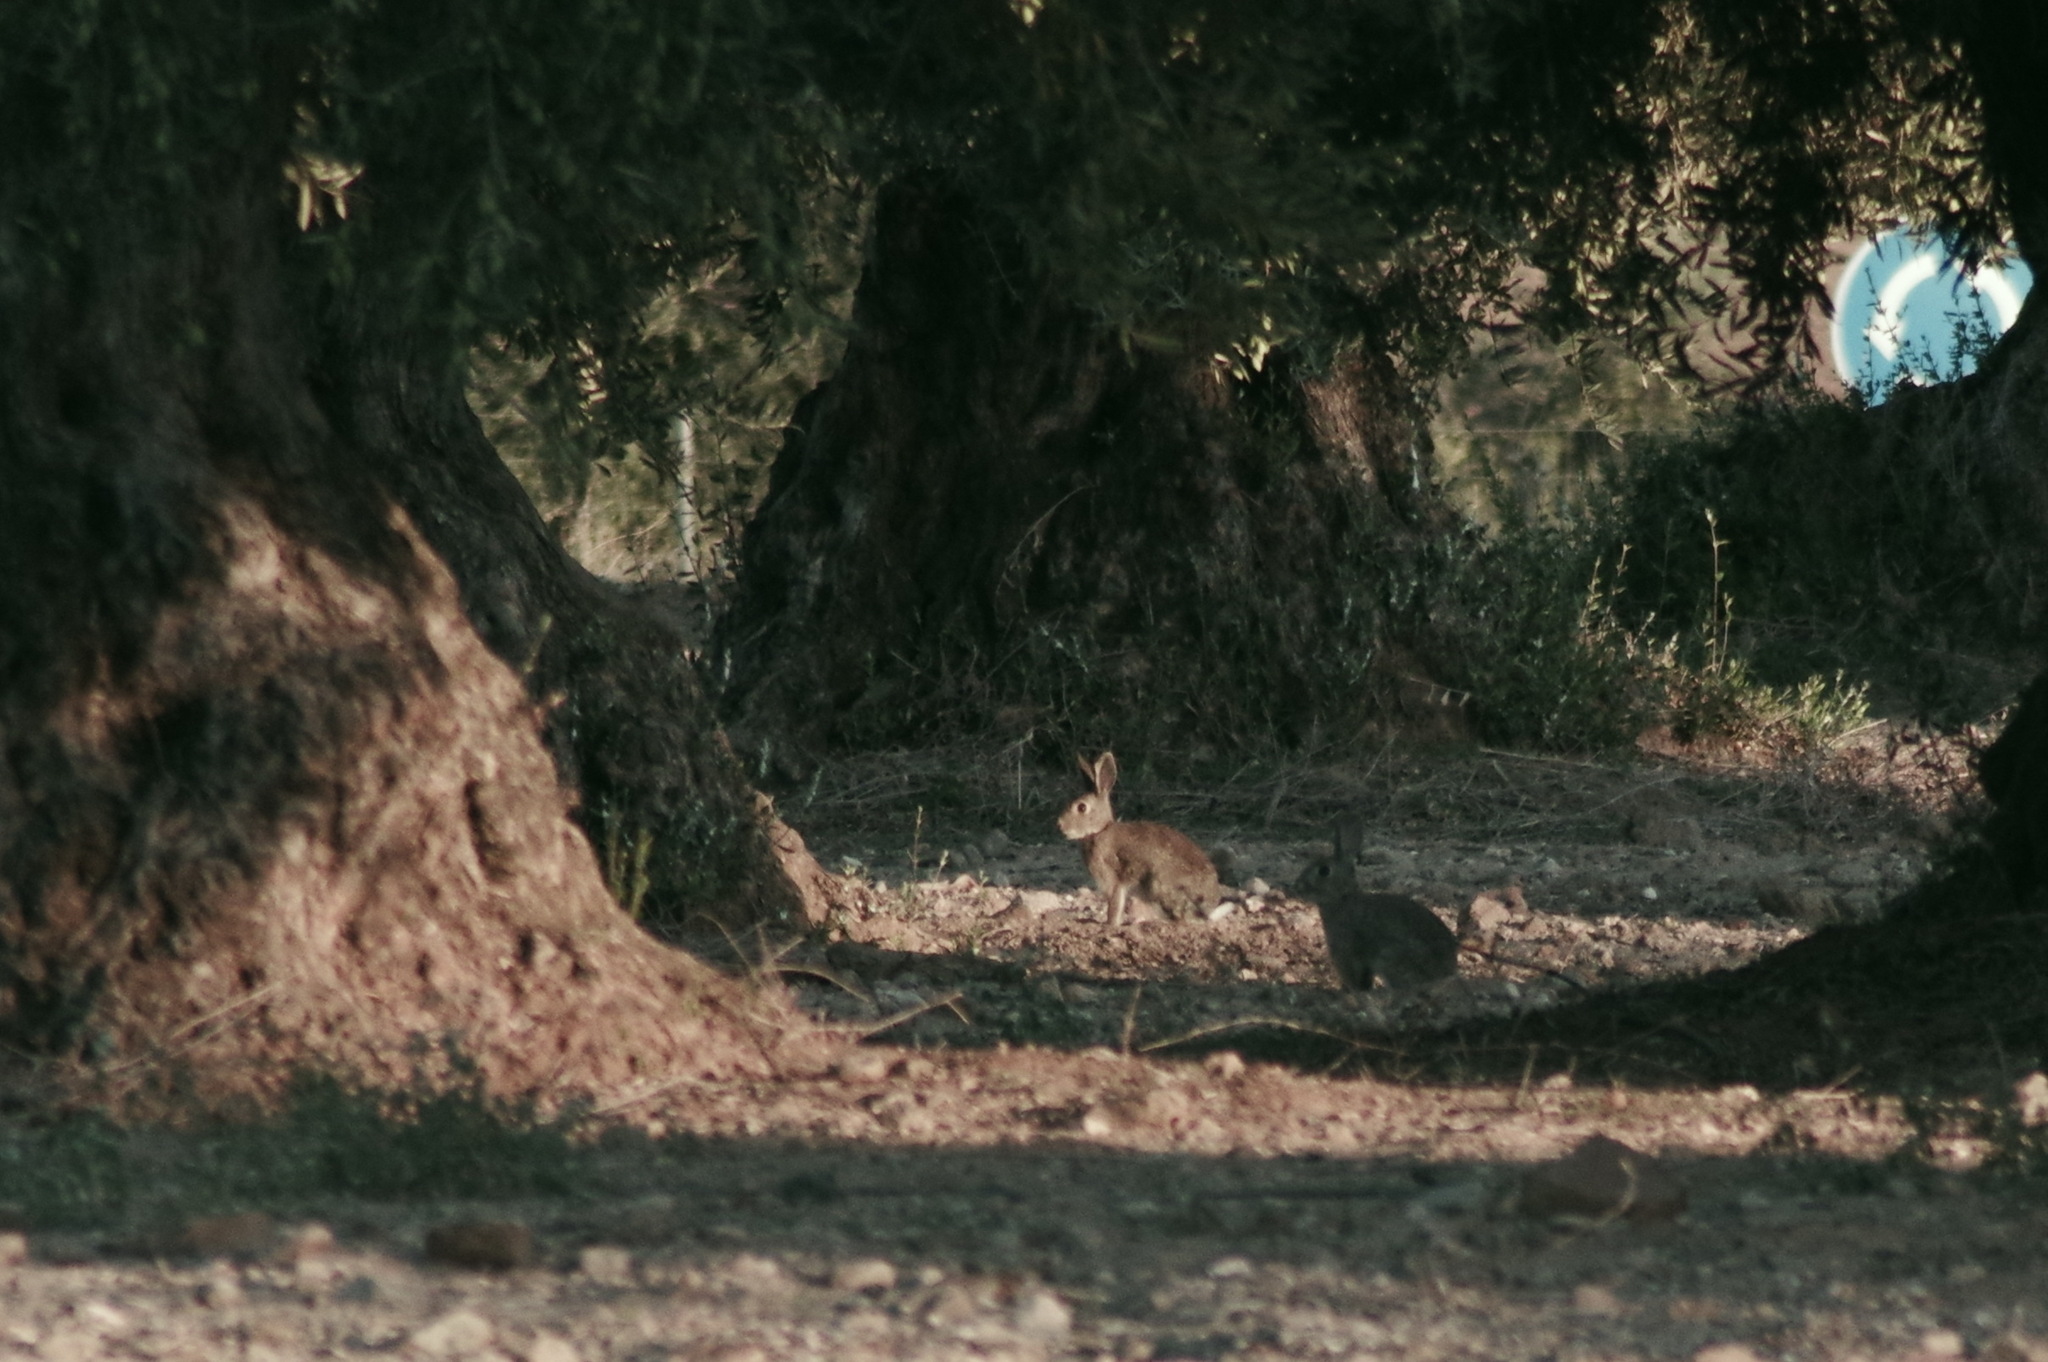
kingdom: Animalia
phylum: Chordata
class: Mammalia
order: Lagomorpha
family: Leporidae
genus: Oryctolagus
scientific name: Oryctolagus cuniculus
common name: European rabbit
